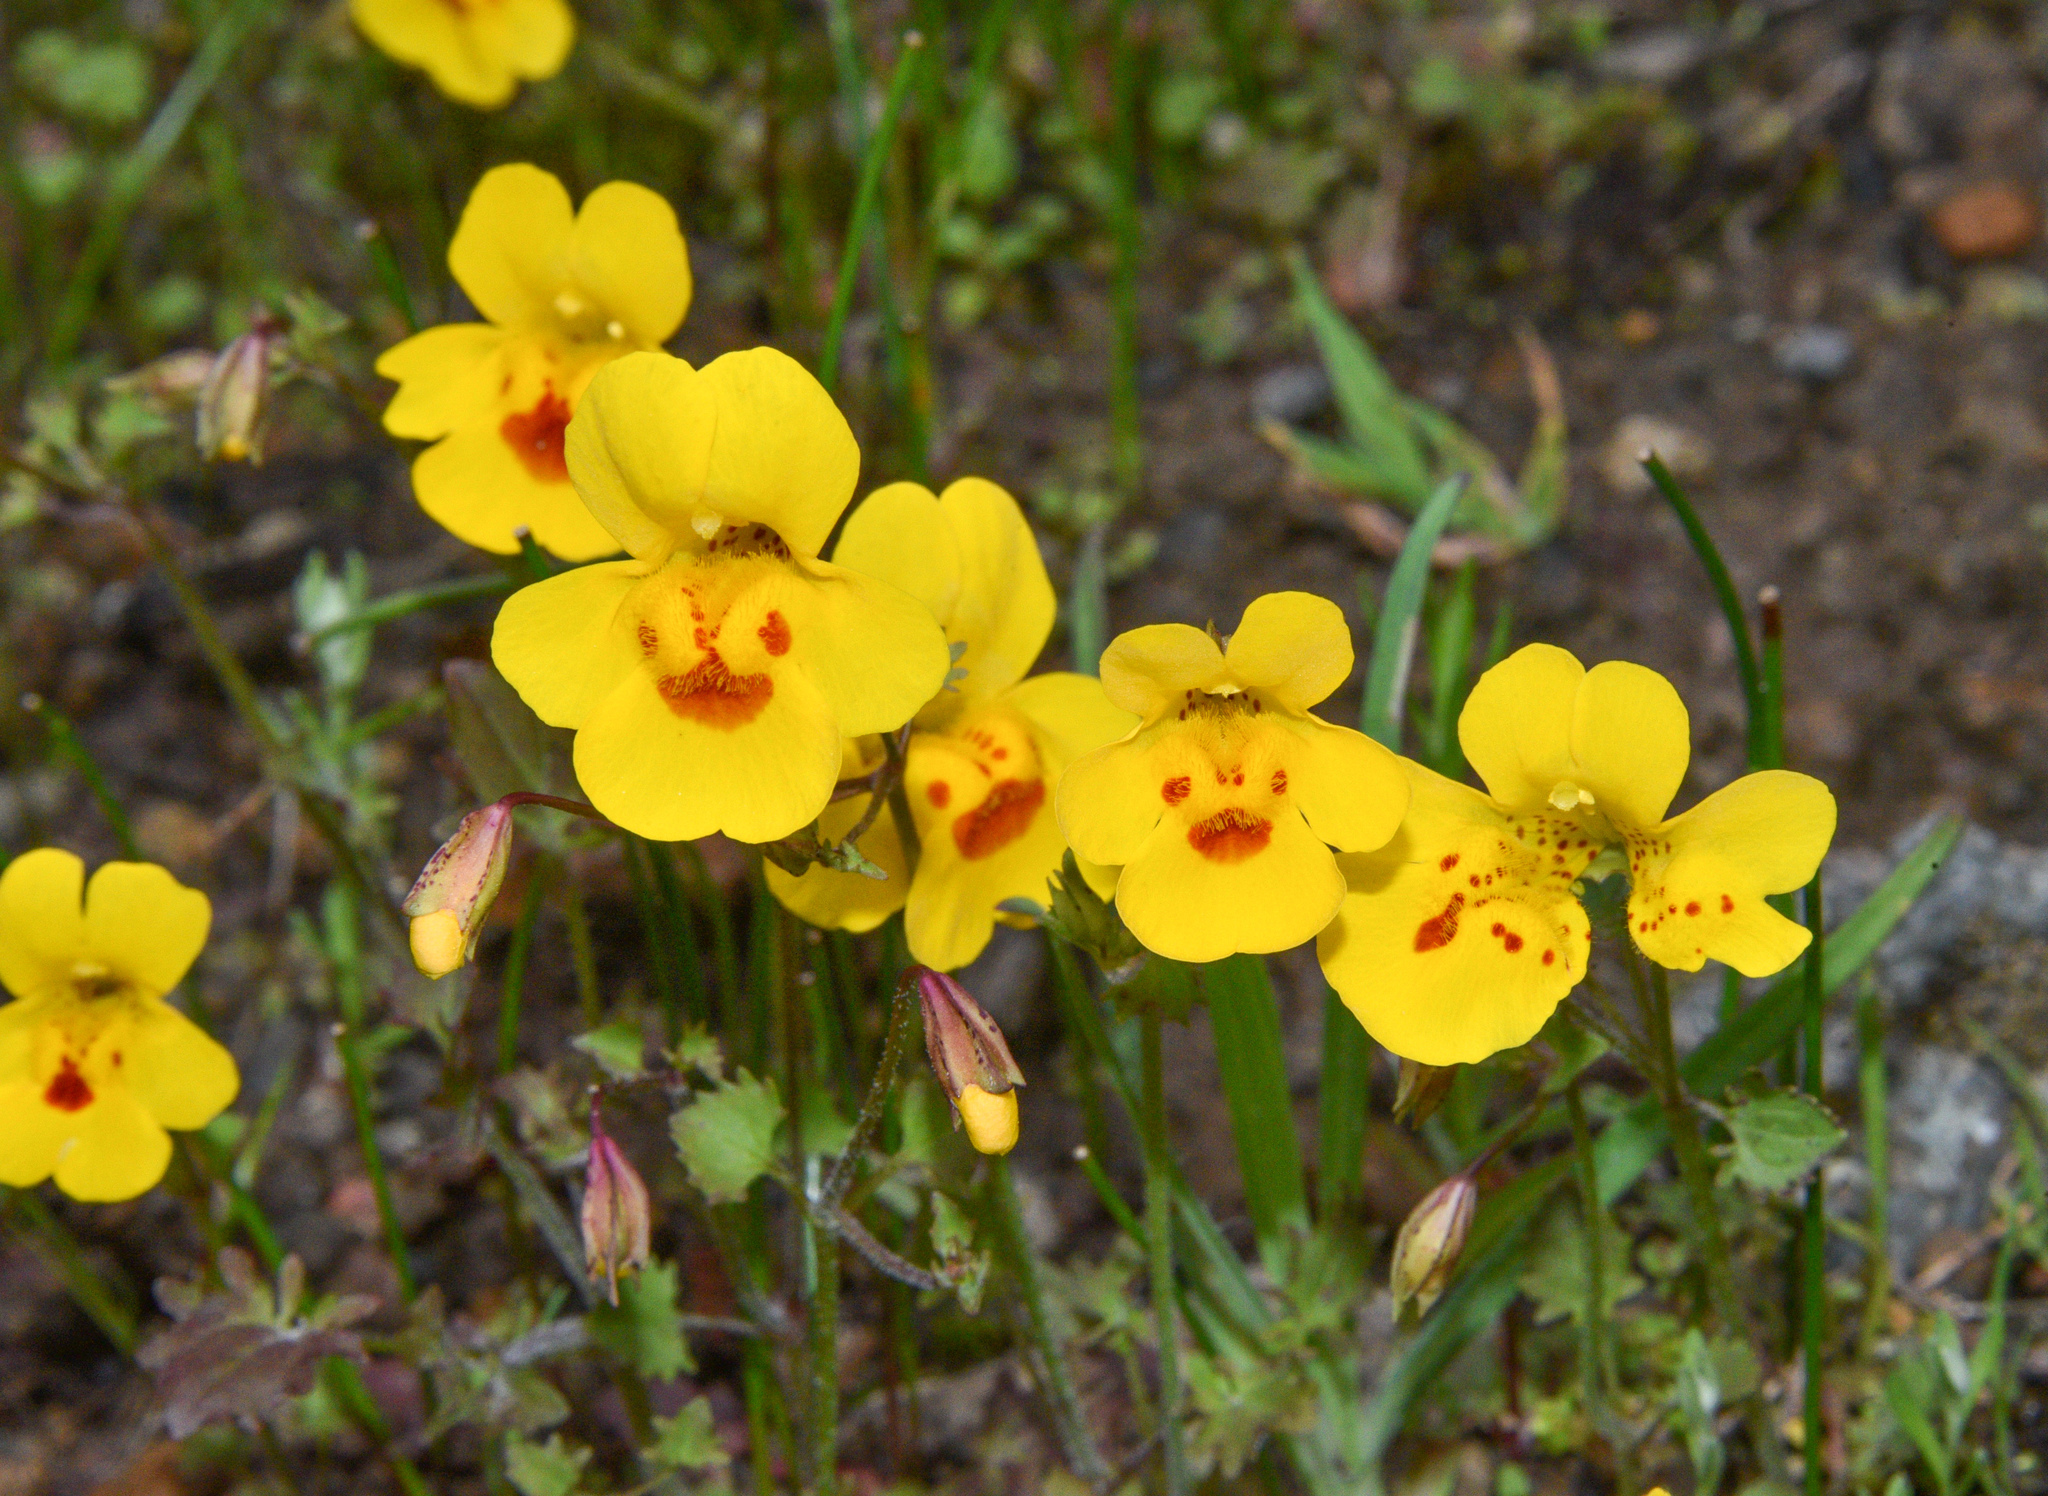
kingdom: Plantae
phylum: Tracheophyta
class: Magnoliopsida
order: Lamiales
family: Phrymaceae
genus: Erythranthe
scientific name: Erythranthe guttata
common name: Monkeyflower
